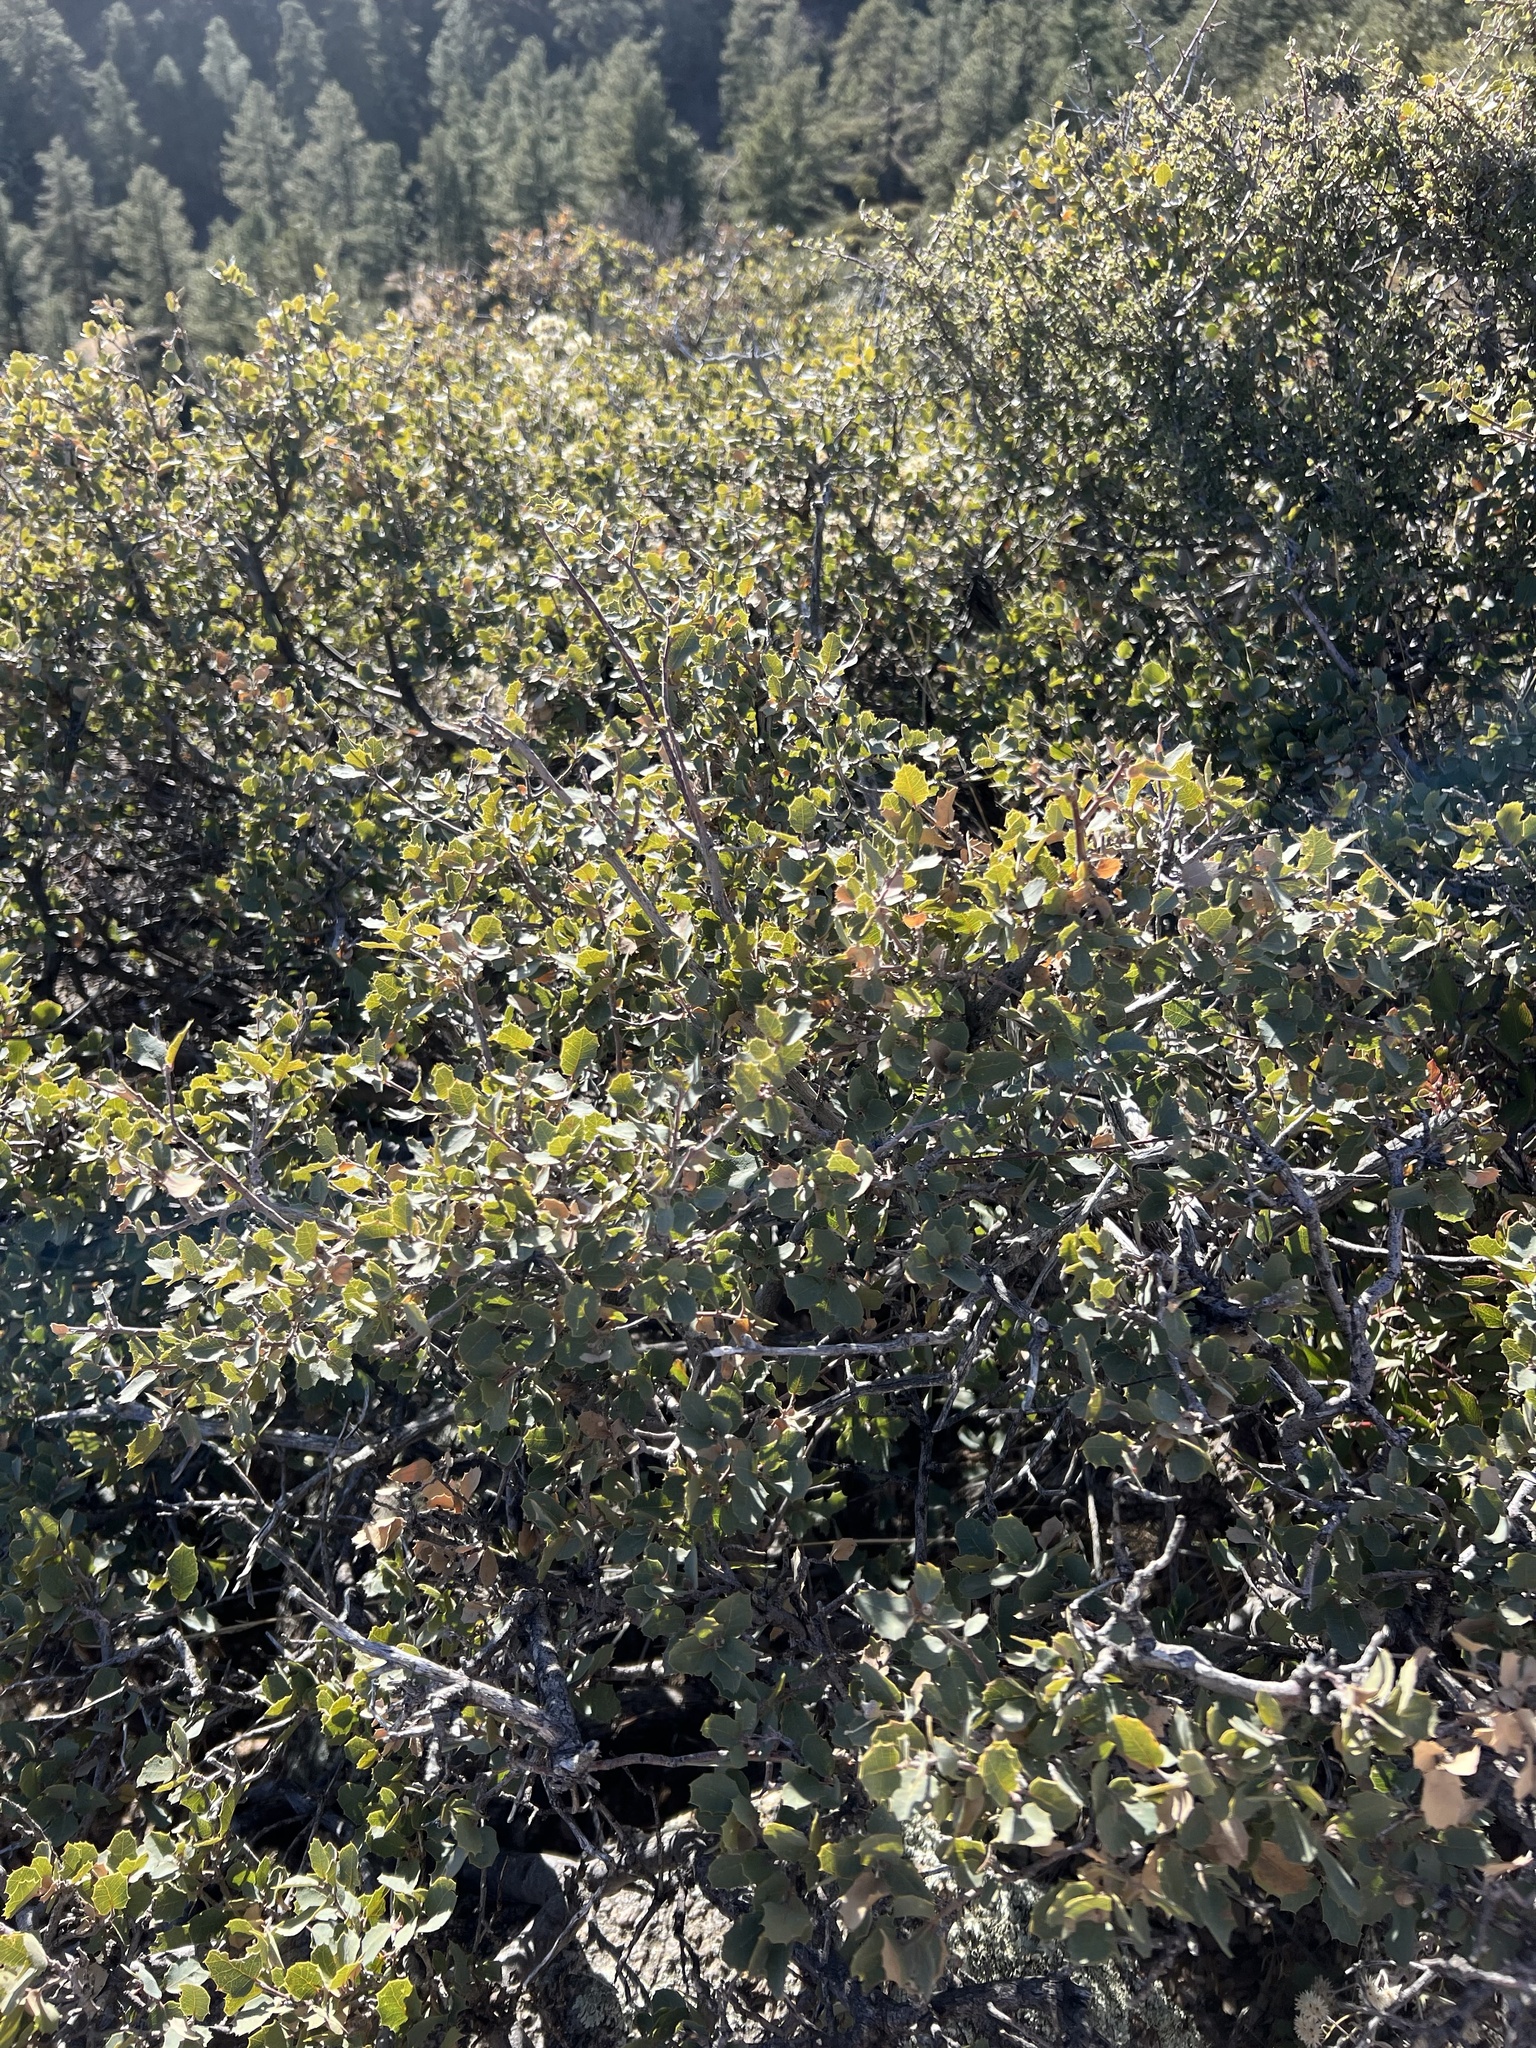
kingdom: Plantae
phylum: Tracheophyta
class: Magnoliopsida
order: Fagales
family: Fagaceae
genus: Quercus
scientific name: Quercus turbinella
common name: Sonoran scrub oak
